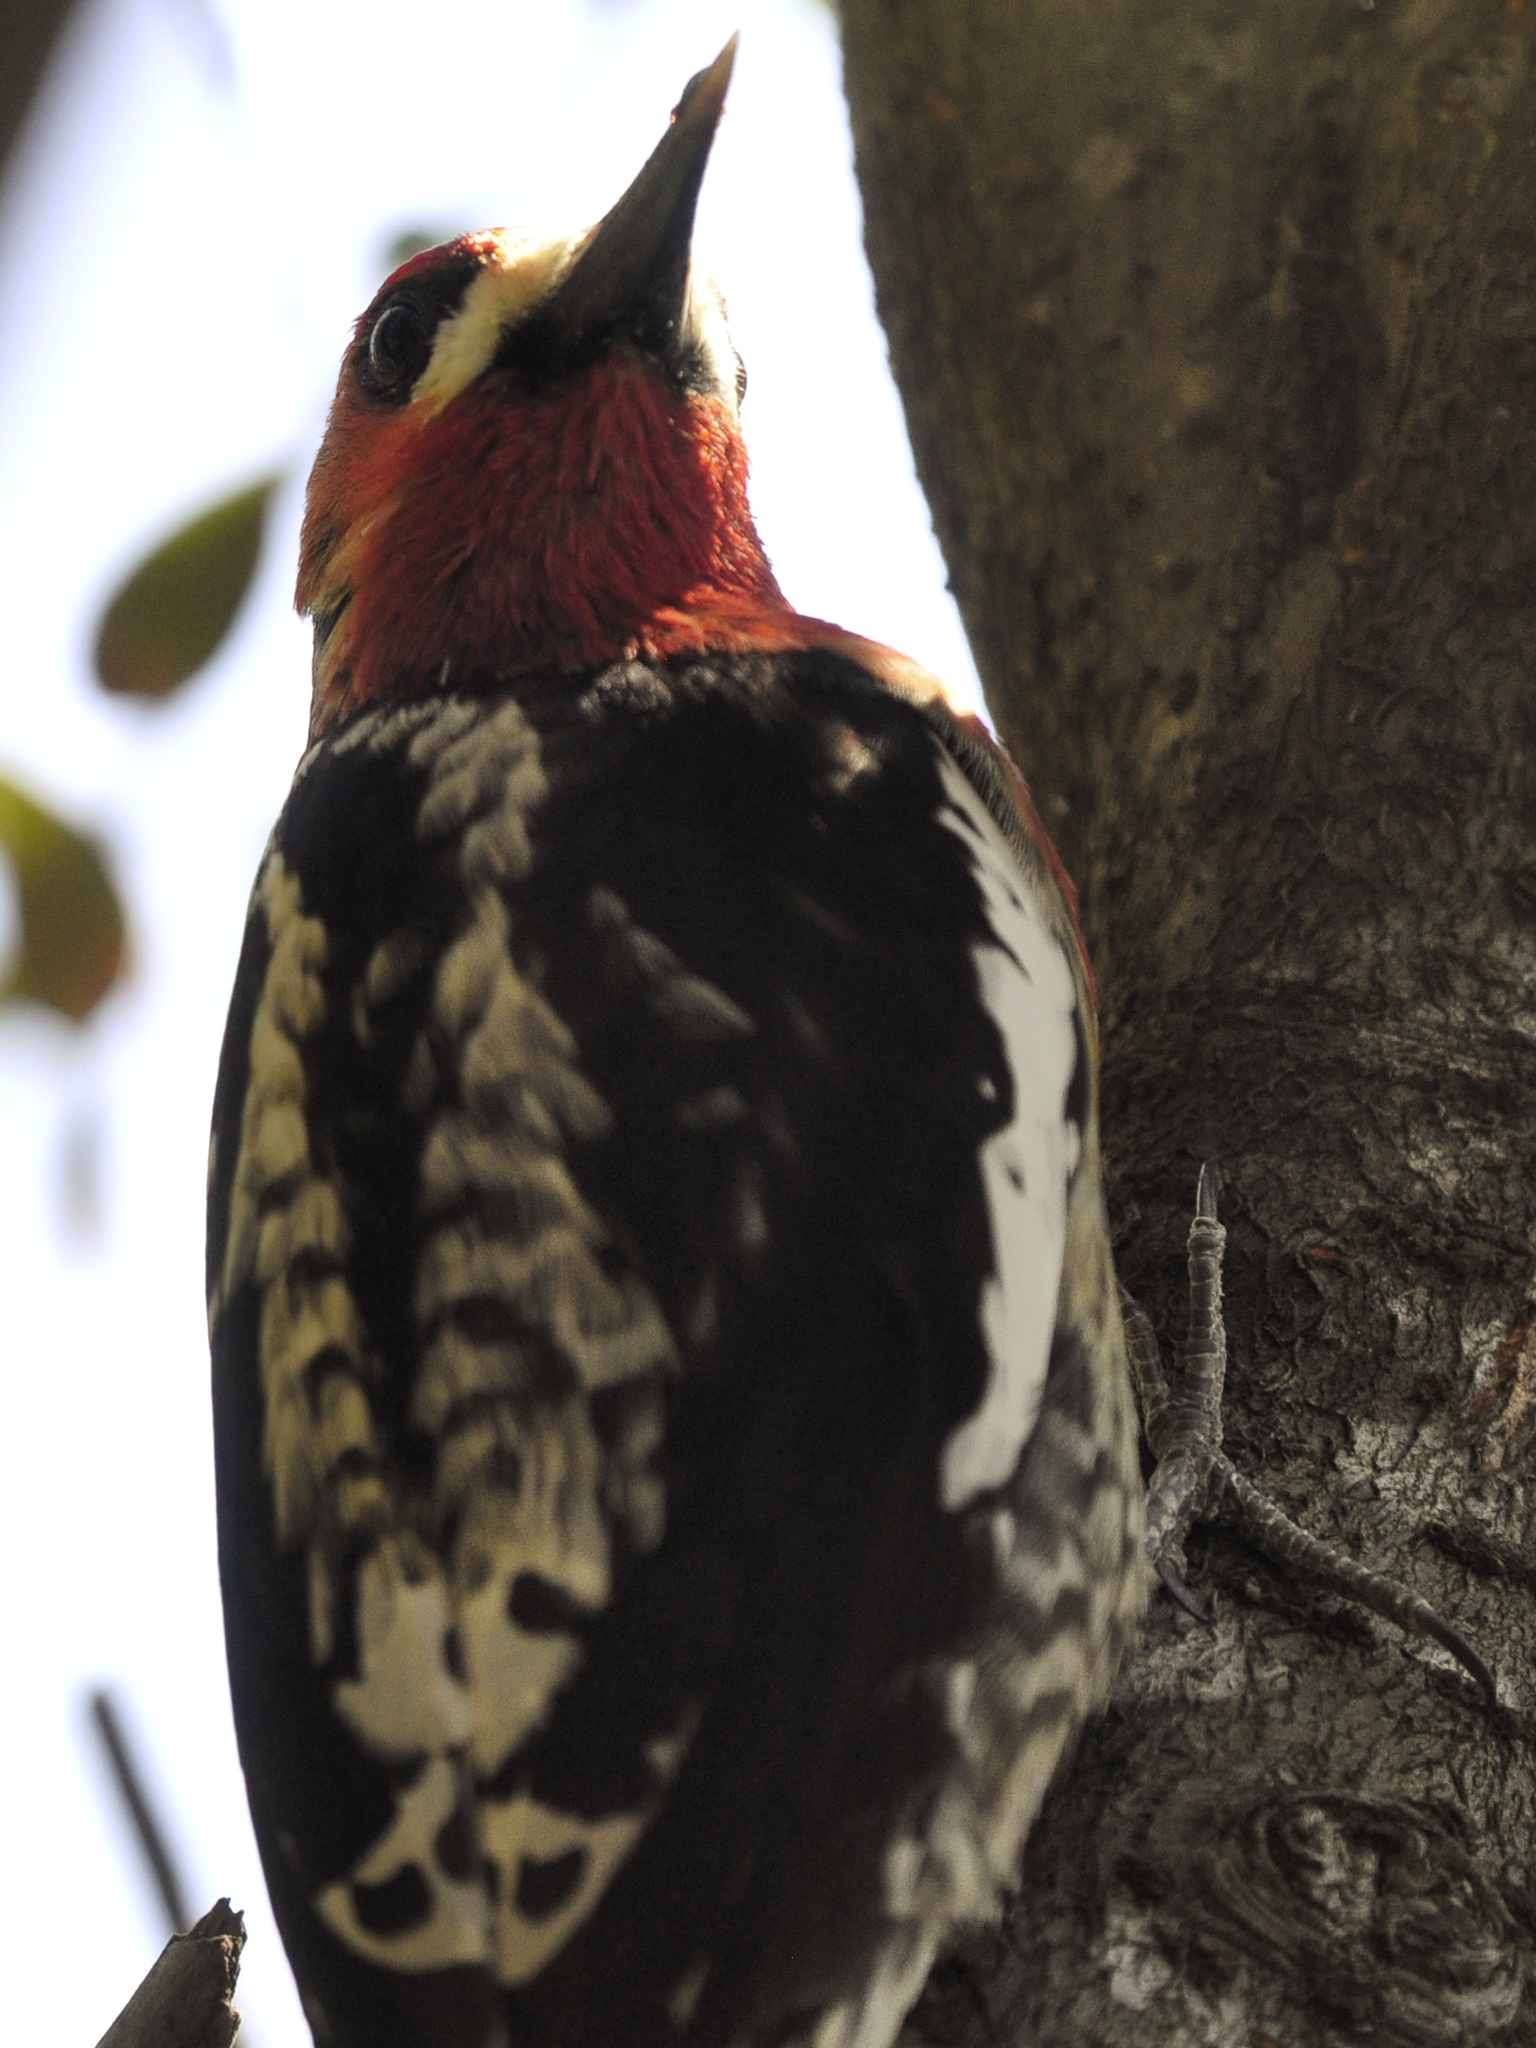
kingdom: Animalia
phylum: Chordata
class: Aves
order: Piciformes
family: Picidae
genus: Sphyrapicus
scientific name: Sphyrapicus ruber
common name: Red-breasted sapsucker
